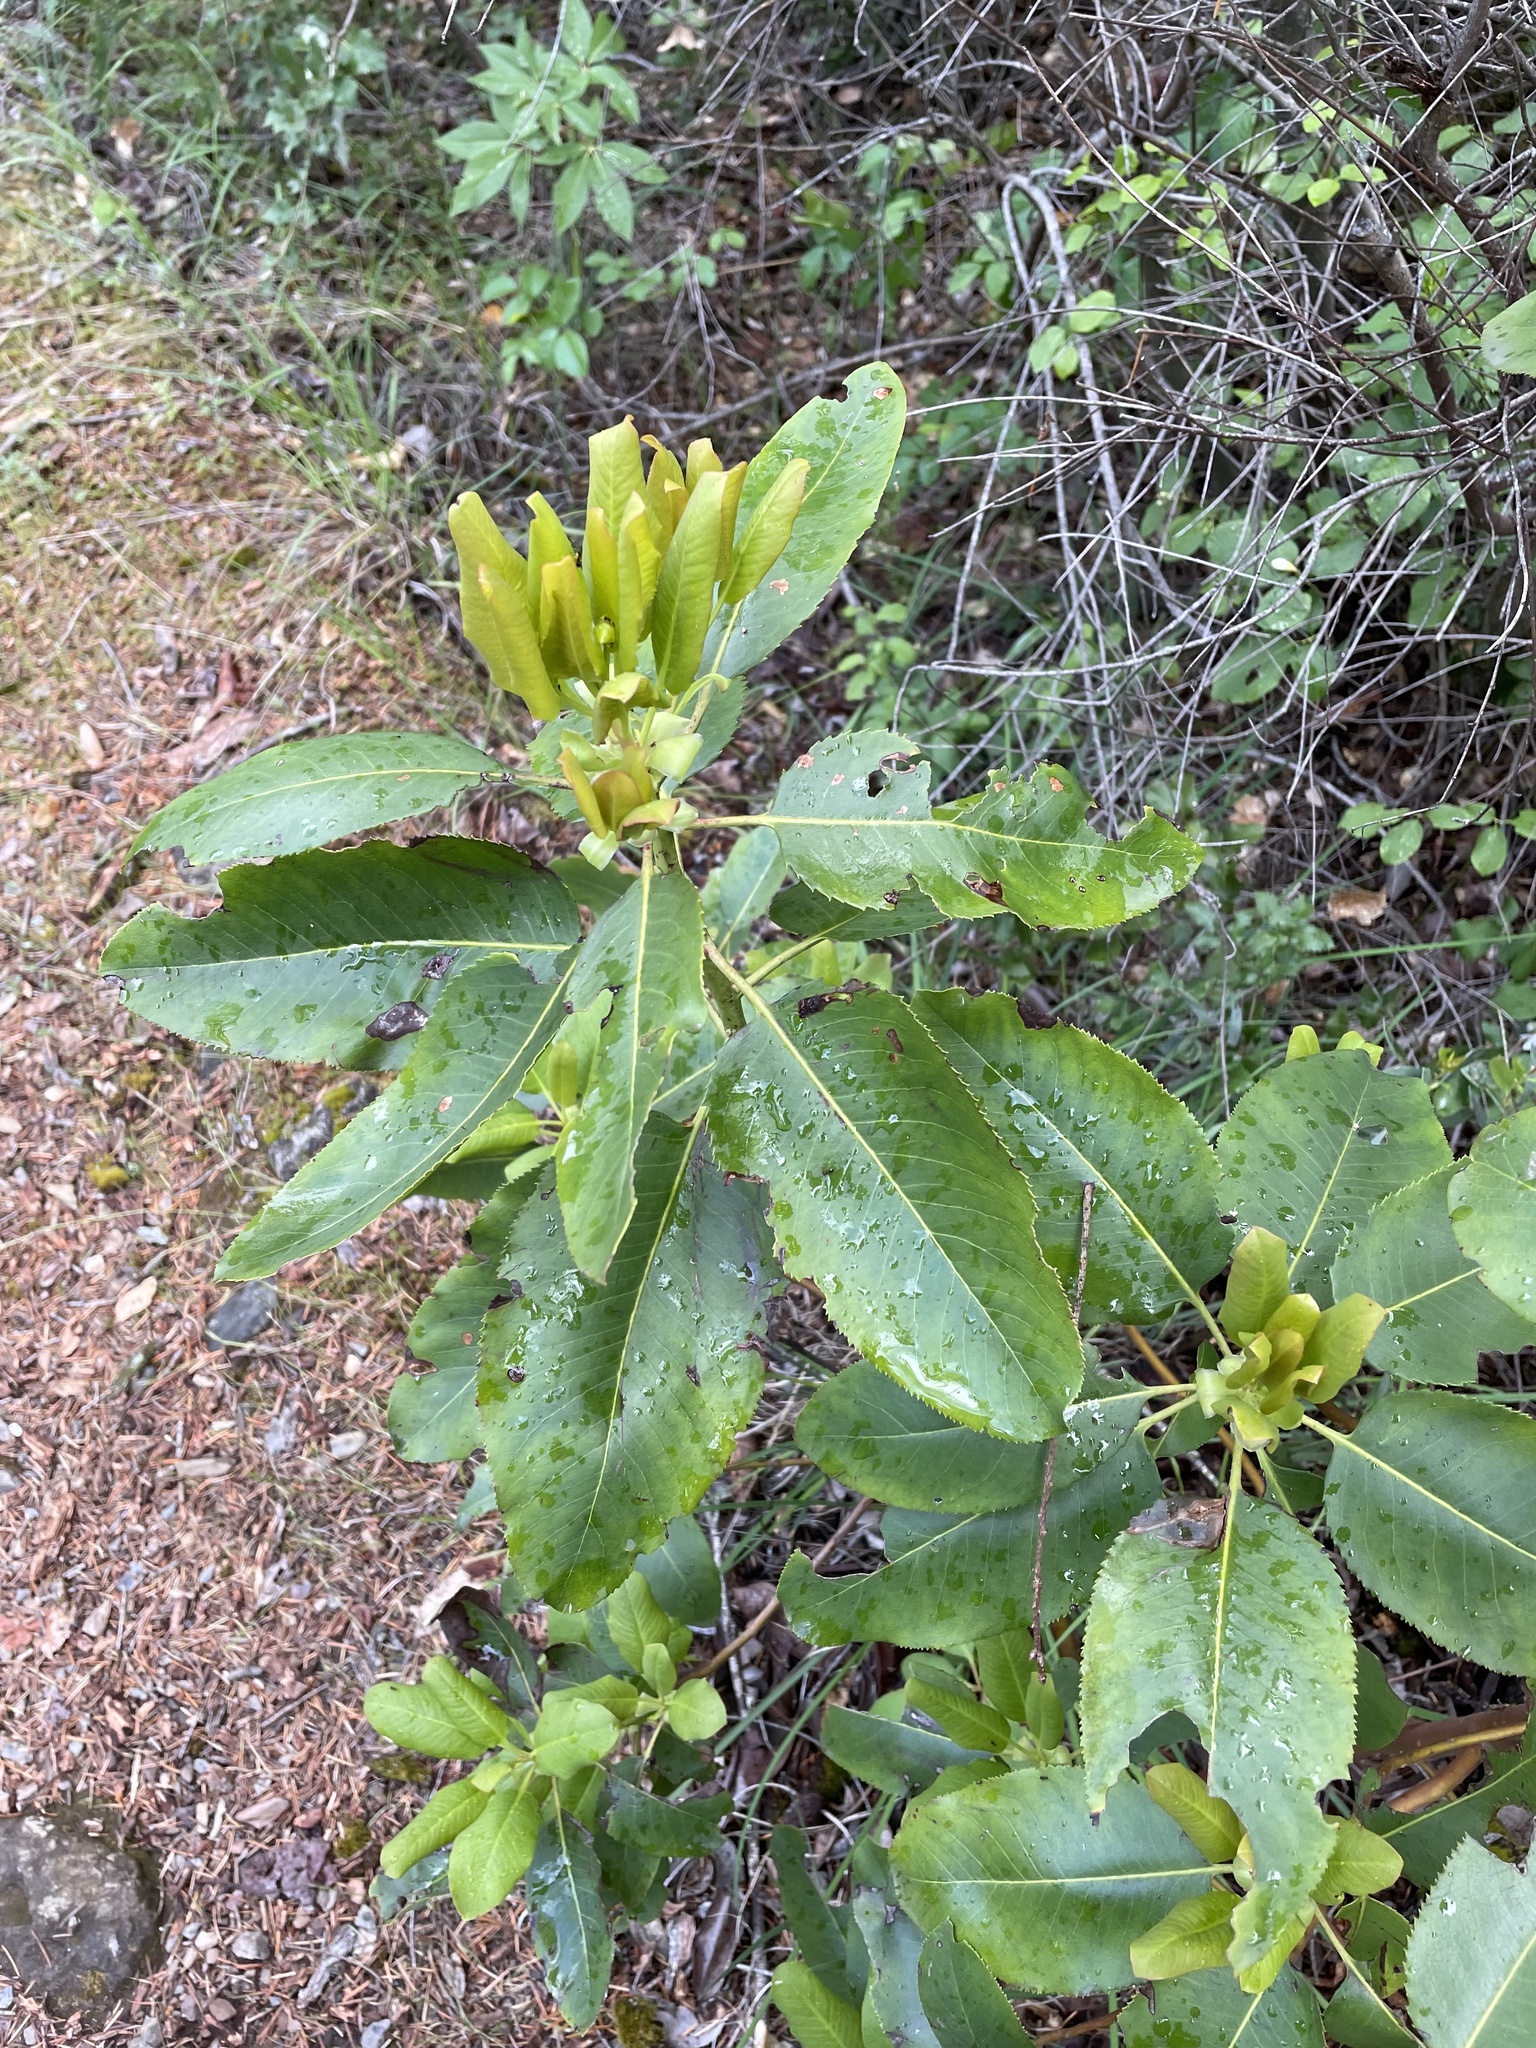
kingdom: Plantae
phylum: Tracheophyta
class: Magnoliopsida
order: Ericales
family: Ericaceae
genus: Arbutus
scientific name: Arbutus menziesii
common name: Pacific madrone
